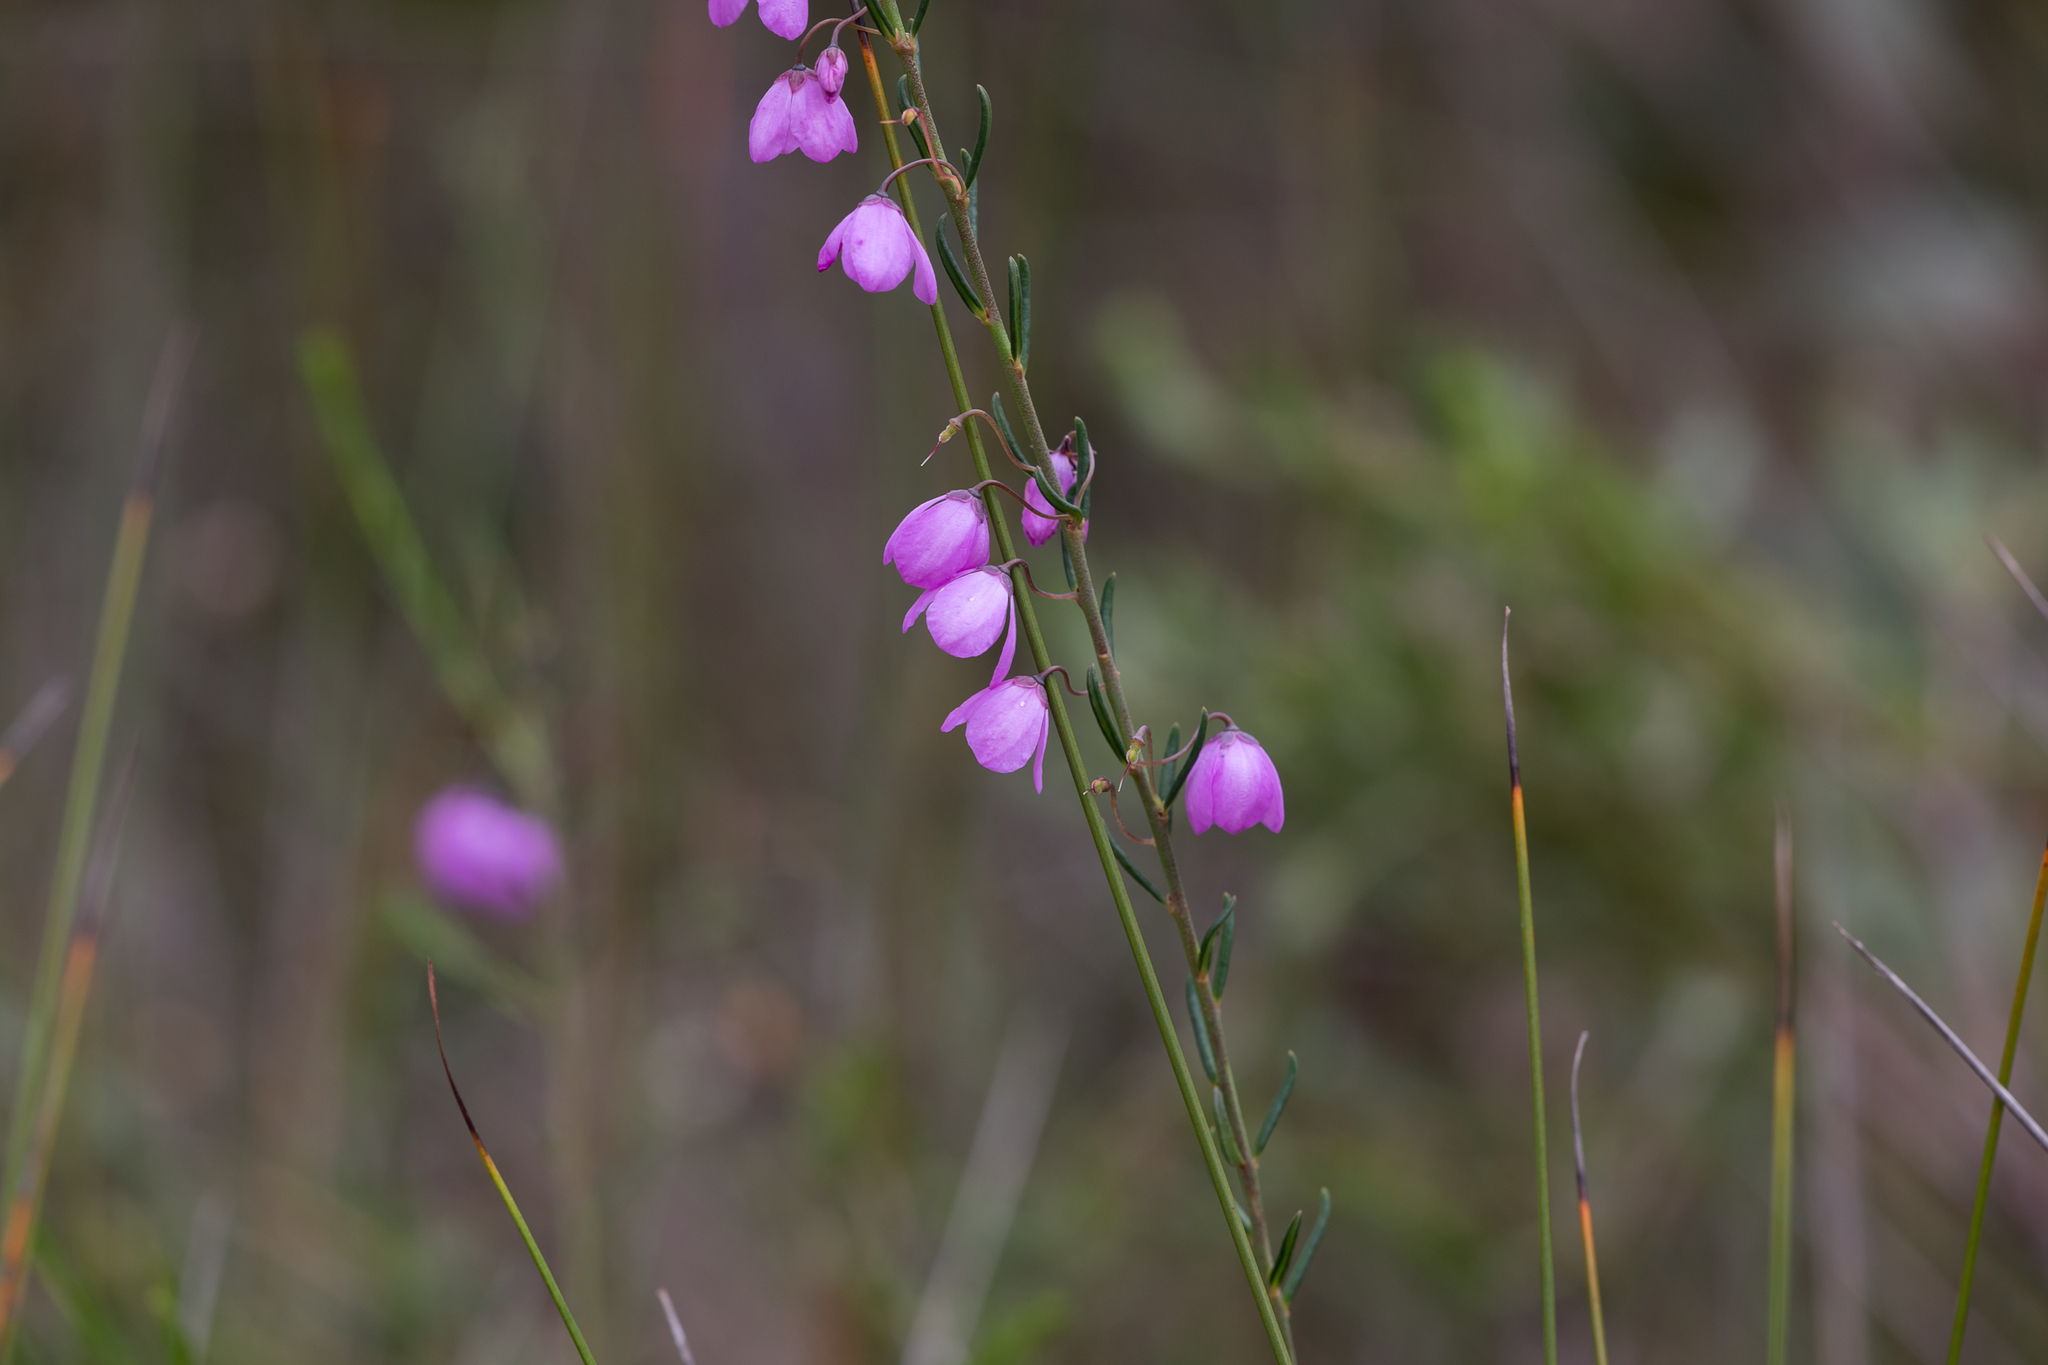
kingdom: Plantae
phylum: Tracheophyta
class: Magnoliopsida
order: Oxalidales
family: Elaeocarpaceae
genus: Tetratheca
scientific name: Tetratheca pilosa
